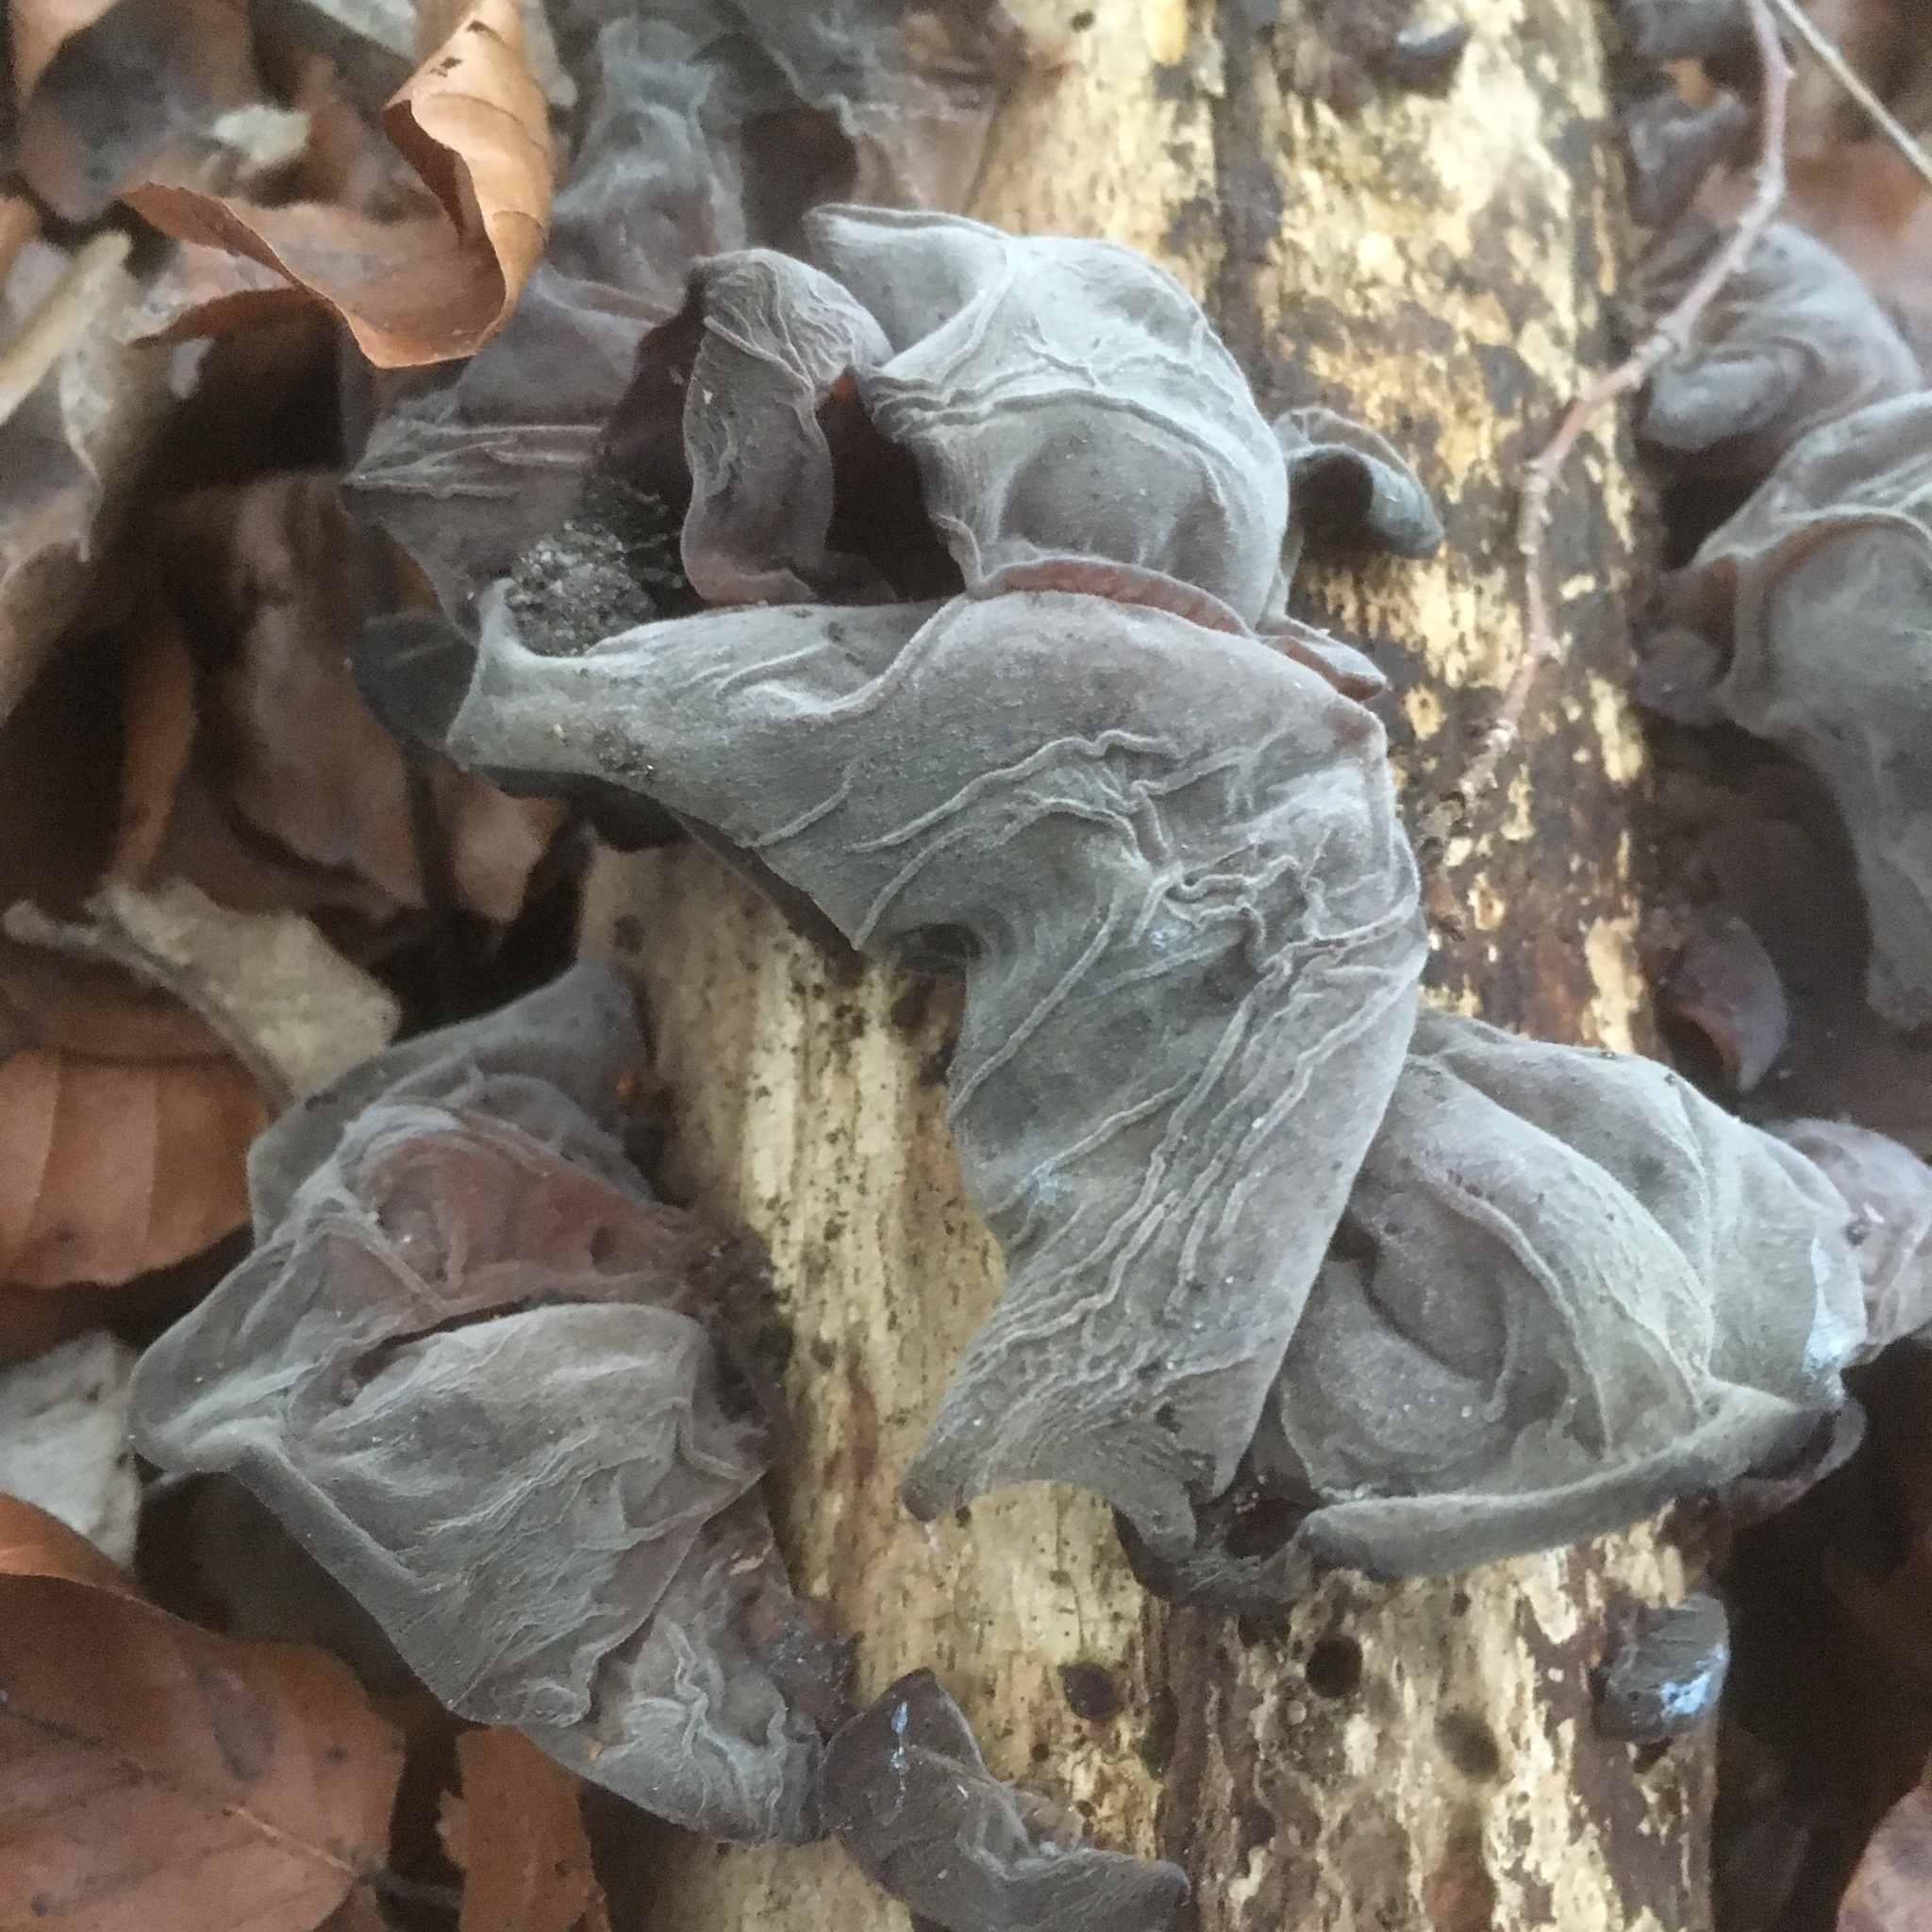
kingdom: Fungi
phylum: Basidiomycota
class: Agaricomycetes
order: Auriculariales
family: Auriculariaceae
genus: Auricularia
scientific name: Auricularia auricula-judae
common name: Jelly ear
